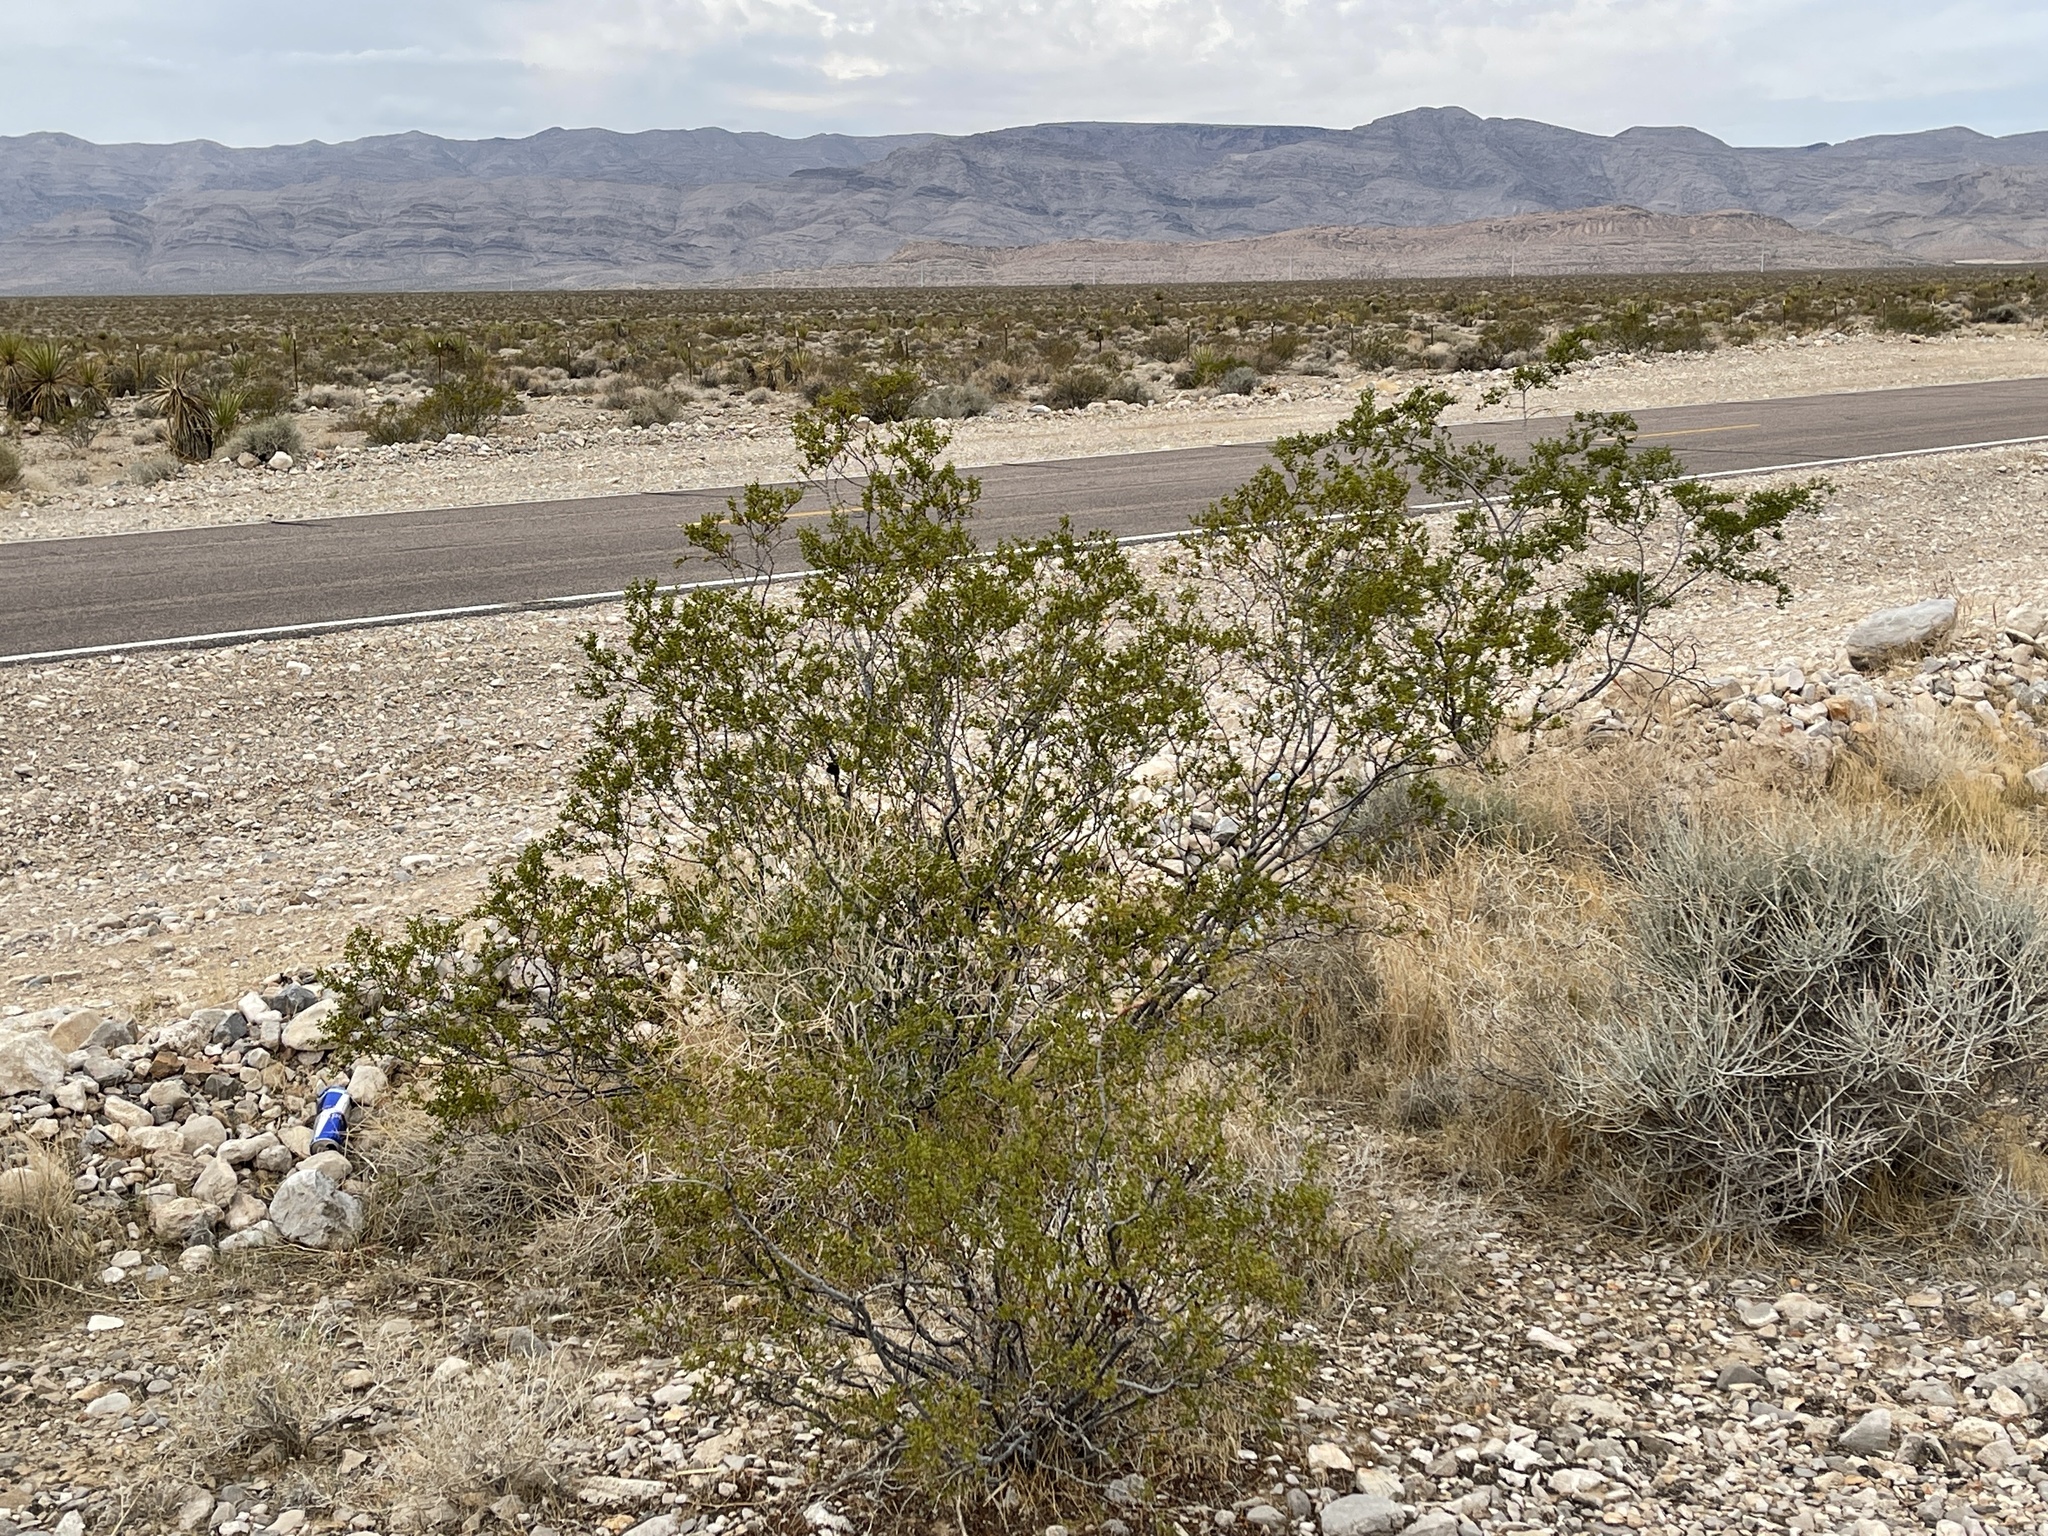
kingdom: Plantae
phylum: Tracheophyta
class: Magnoliopsida
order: Zygophyllales
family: Zygophyllaceae
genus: Larrea
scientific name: Larrea tridentata
